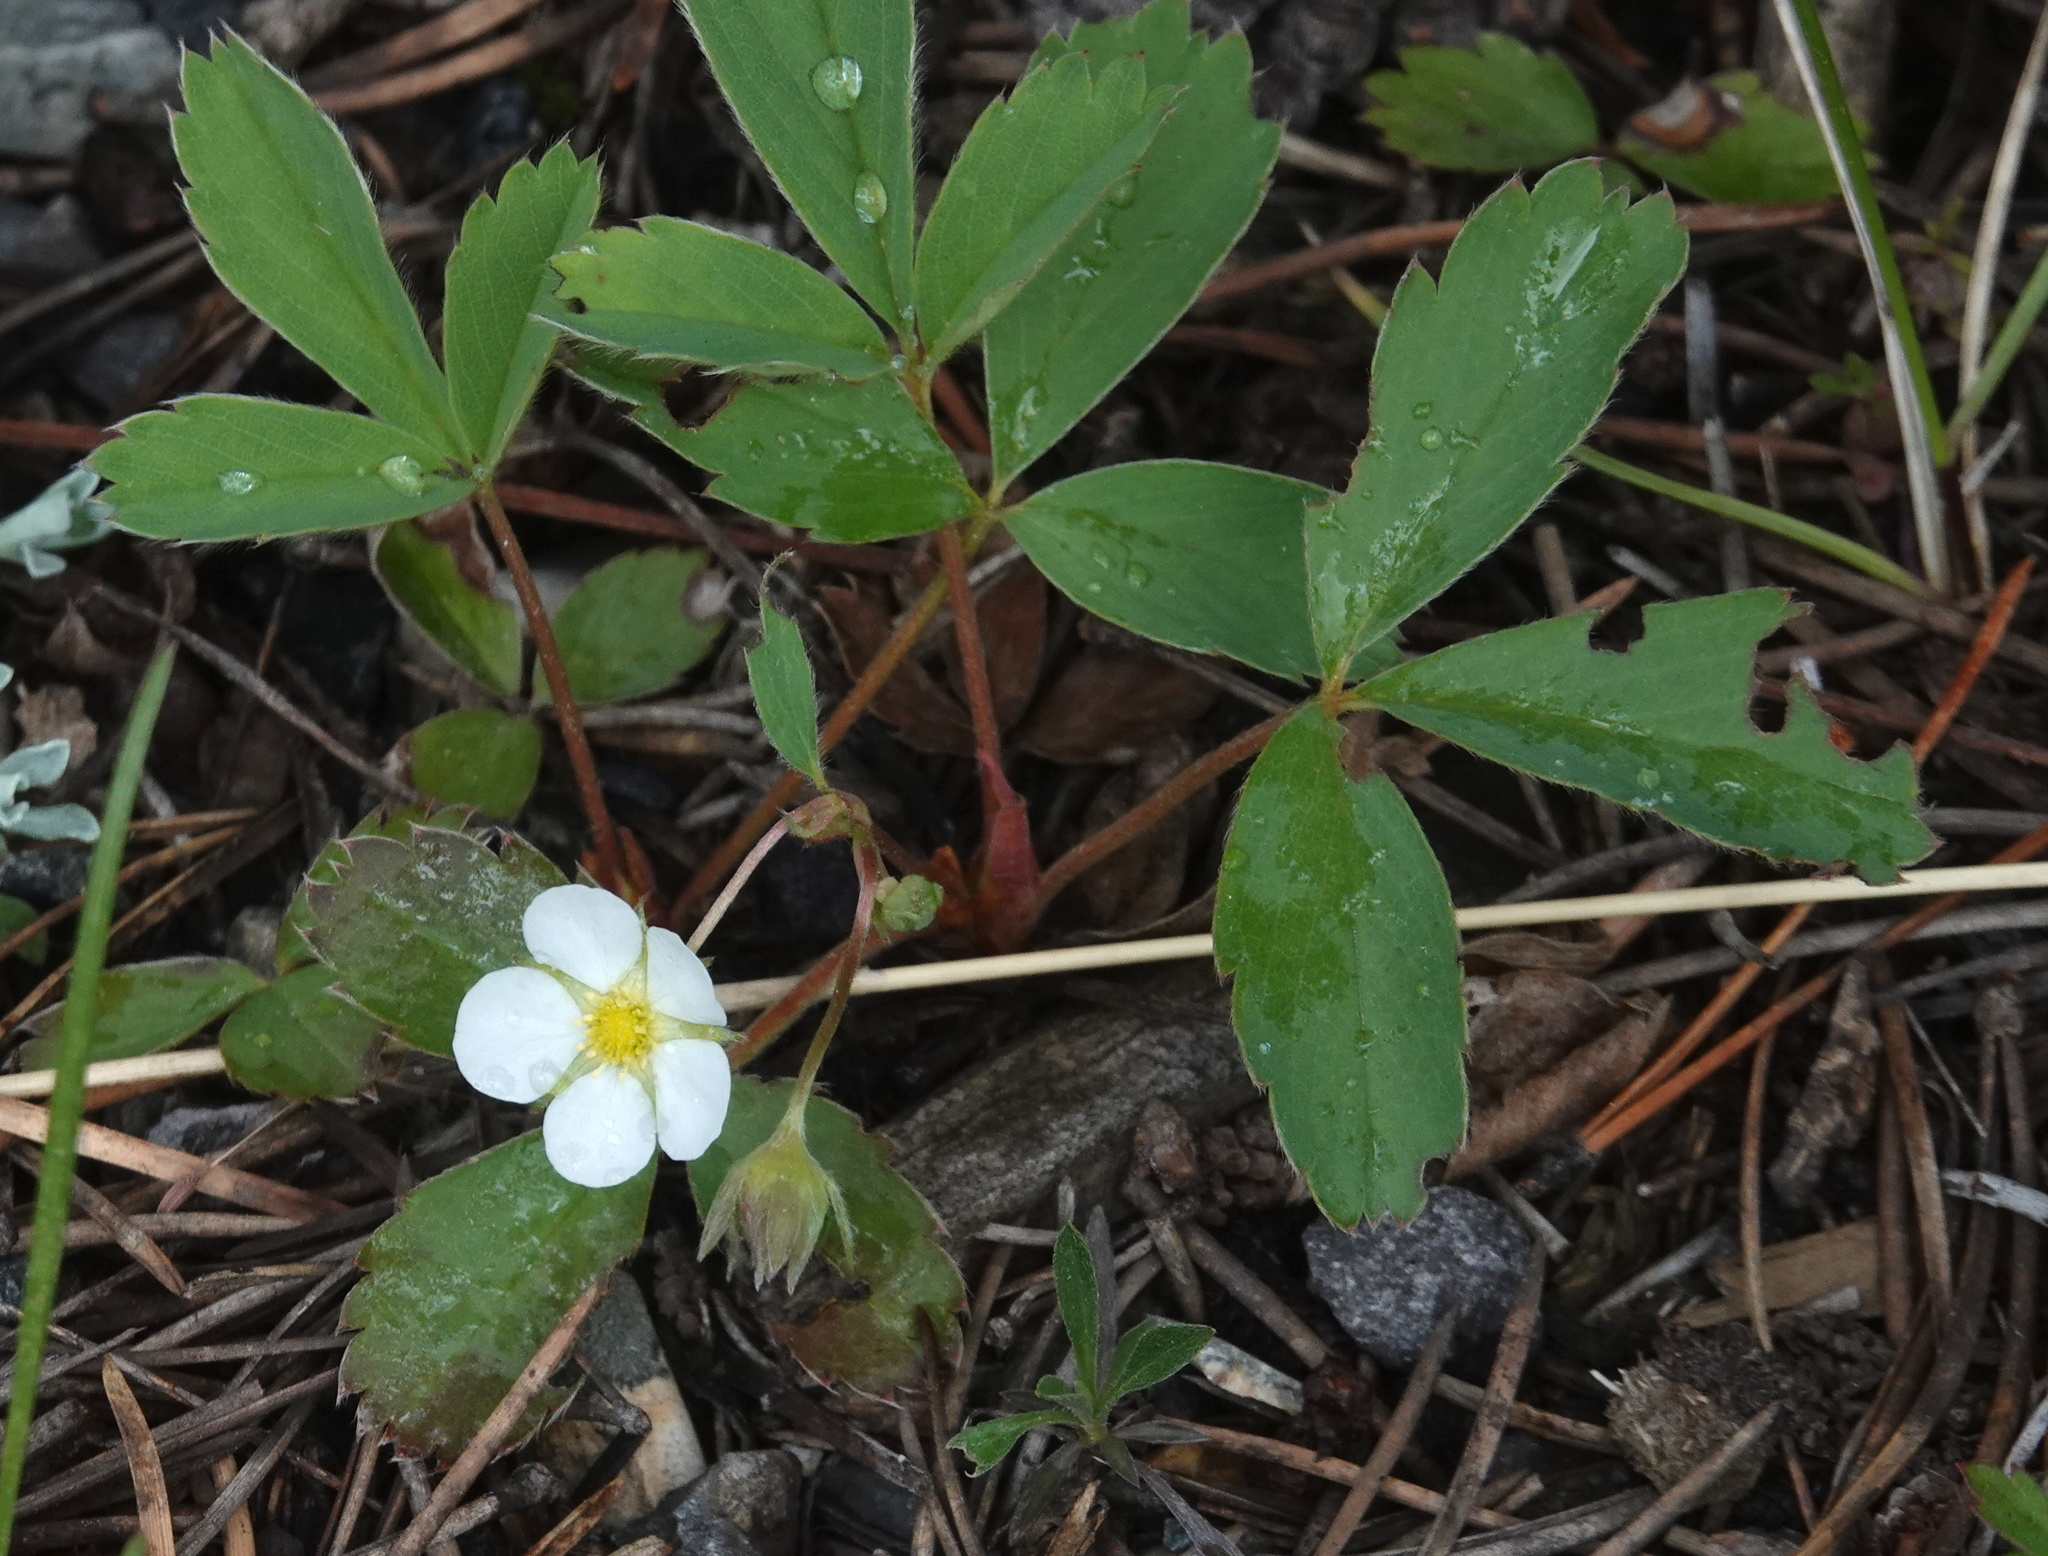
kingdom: Plantae
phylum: Tracheophyta
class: Magnoliopsida
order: Rosales
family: Rosaceae
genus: Fragaria
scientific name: Fragaria virginiana
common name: Thickleaved wild strawberry
